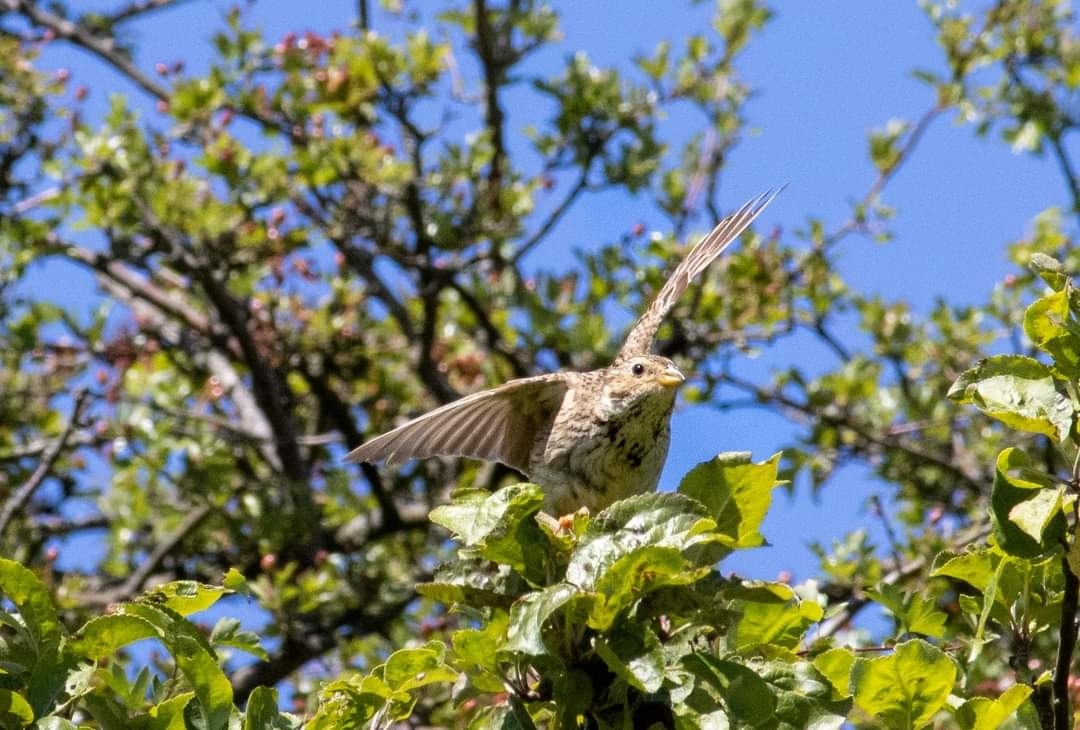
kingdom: Animalia
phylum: Chordata
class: Aves
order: Passeriformes
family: Emberizidae
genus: Emberiza
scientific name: Emberiza calandra
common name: Corn bunting
